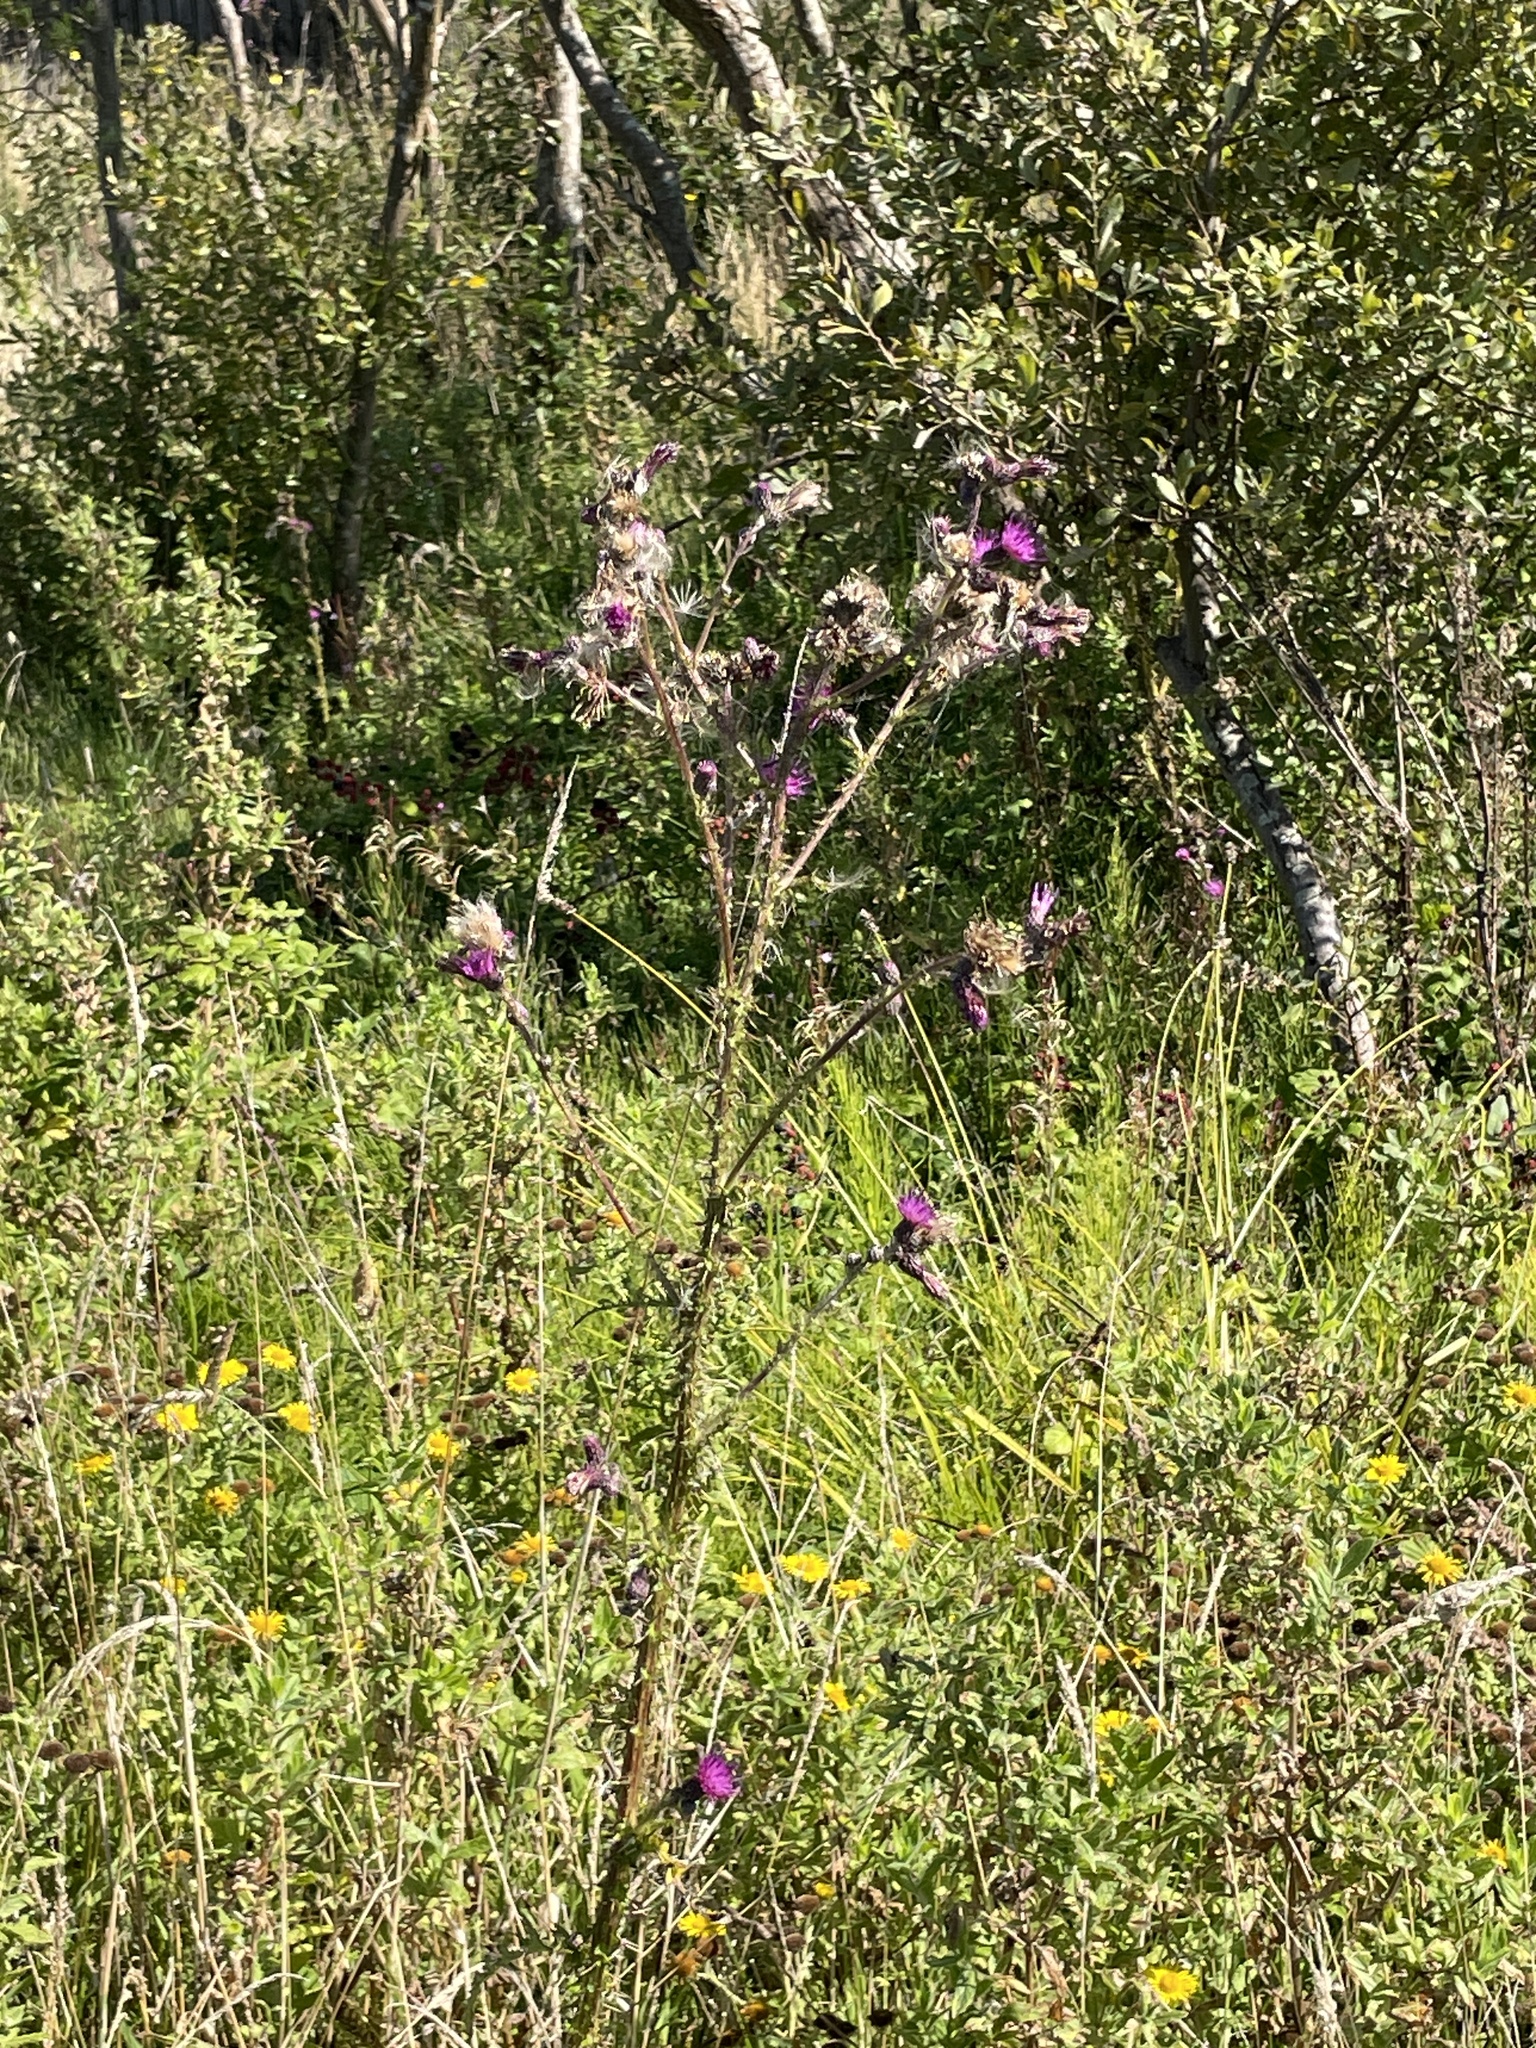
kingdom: Plantae
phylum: Tracheophyta
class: Magnoliopsida
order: Asterales
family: Asteraceae
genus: Cirsium
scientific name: Cirsium palustre
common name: Marsh thistle
